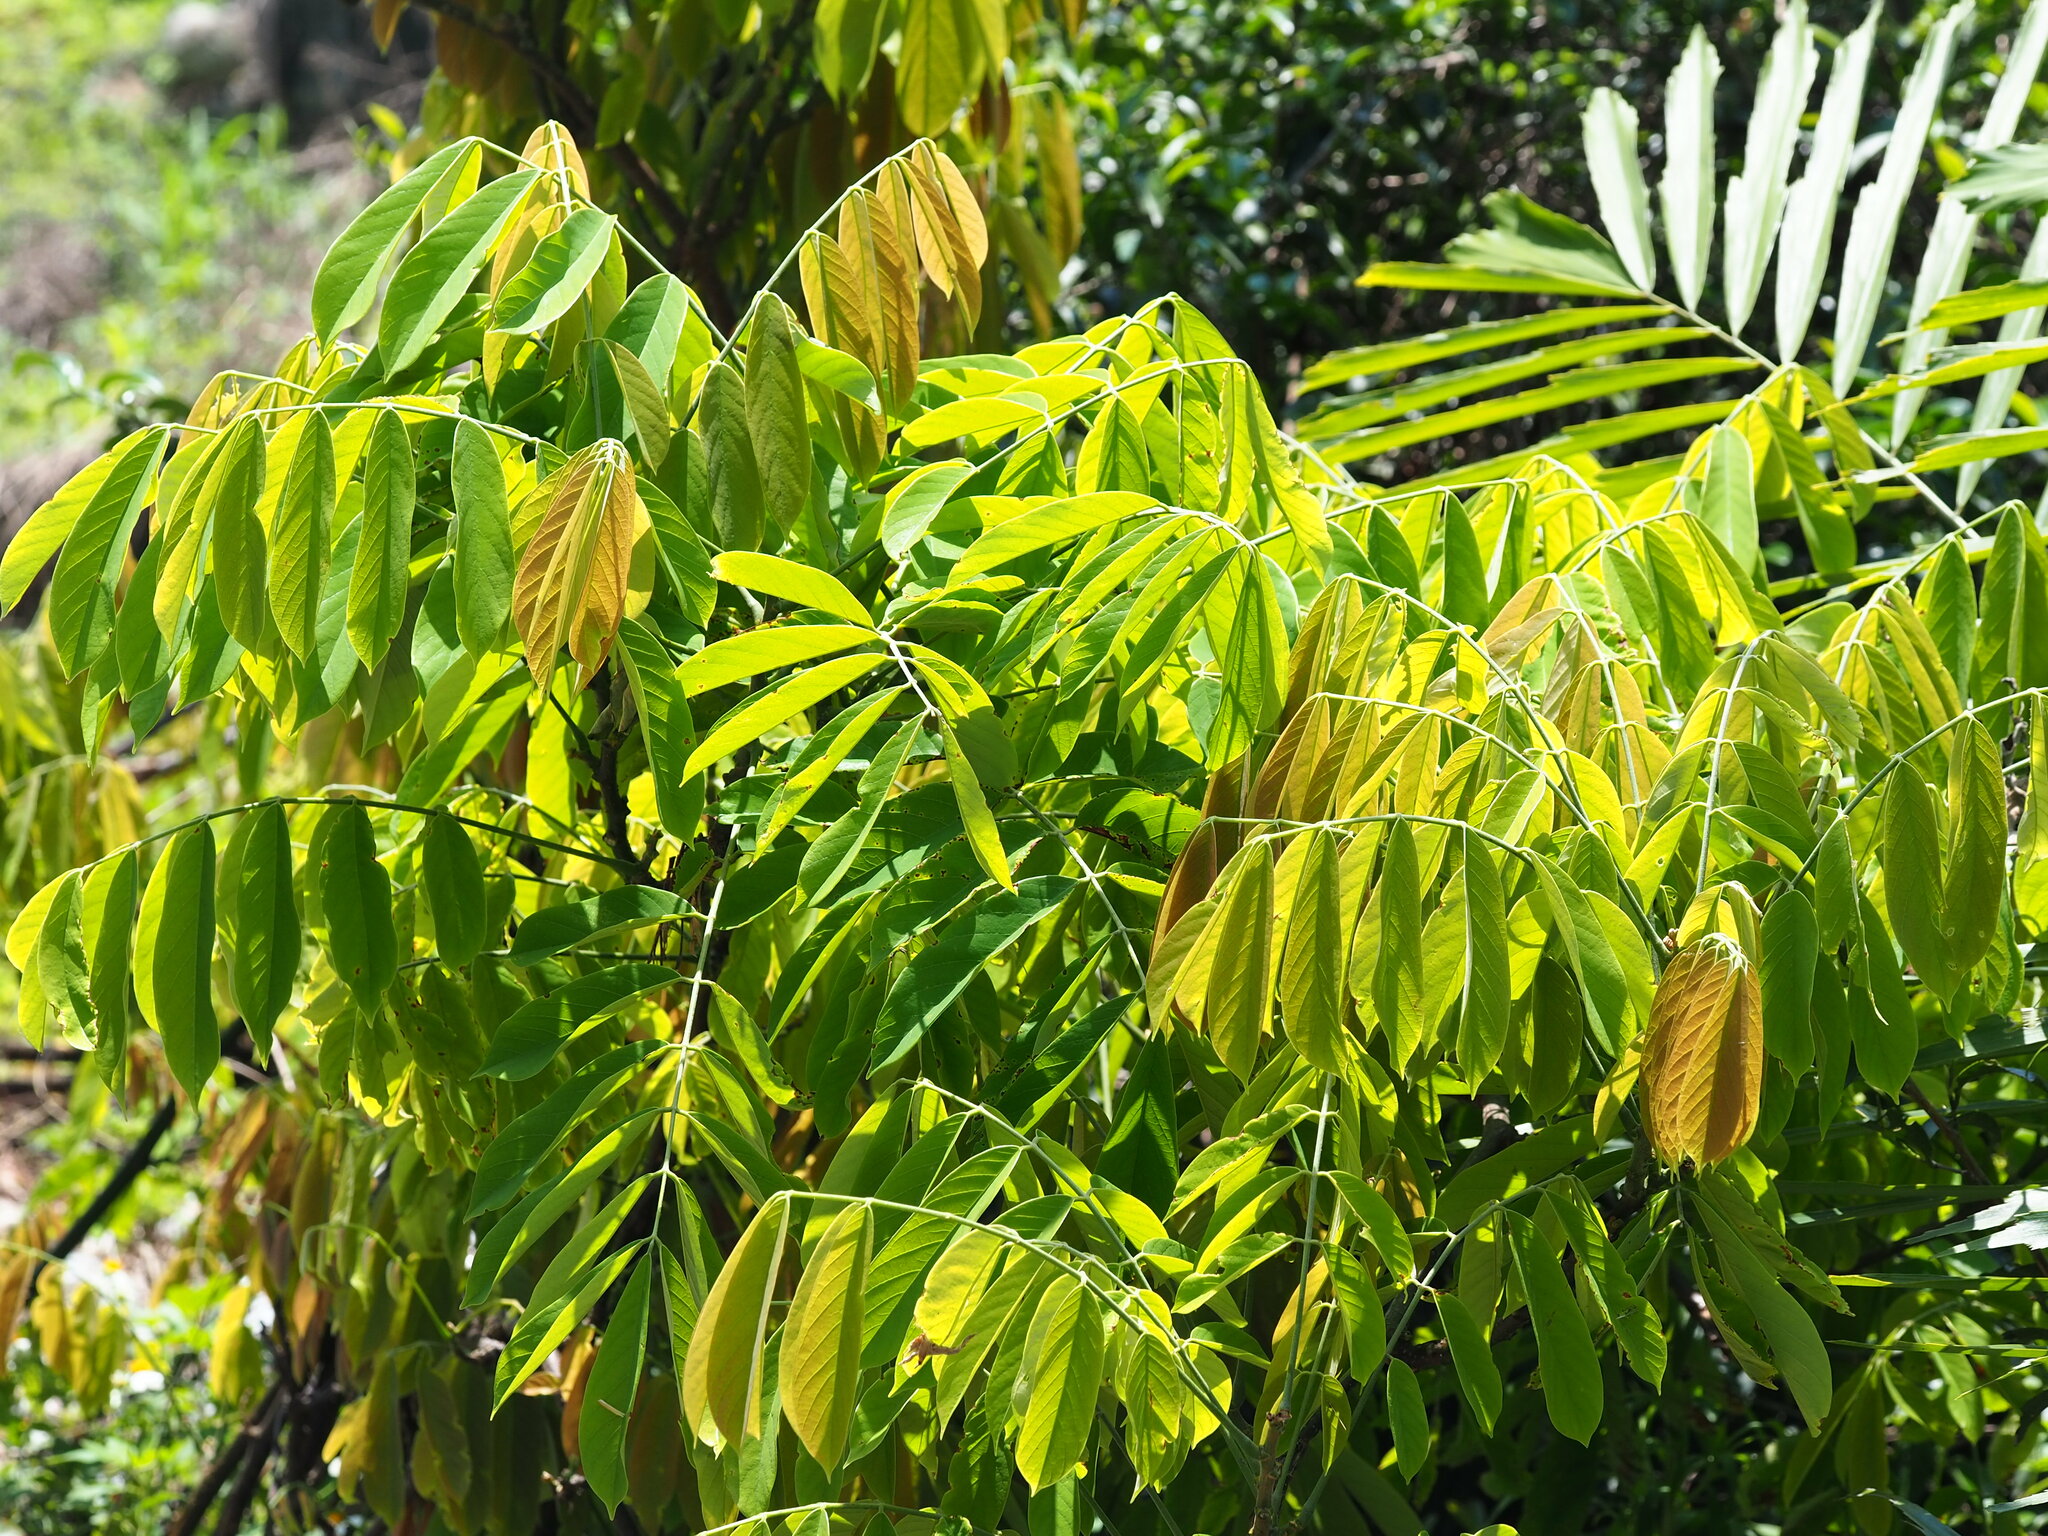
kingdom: Plantae
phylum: Tracheophyta
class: Magnoliopsida
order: Fabales
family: Fabaceae
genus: Millettia
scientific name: Millettia pachycarpa
